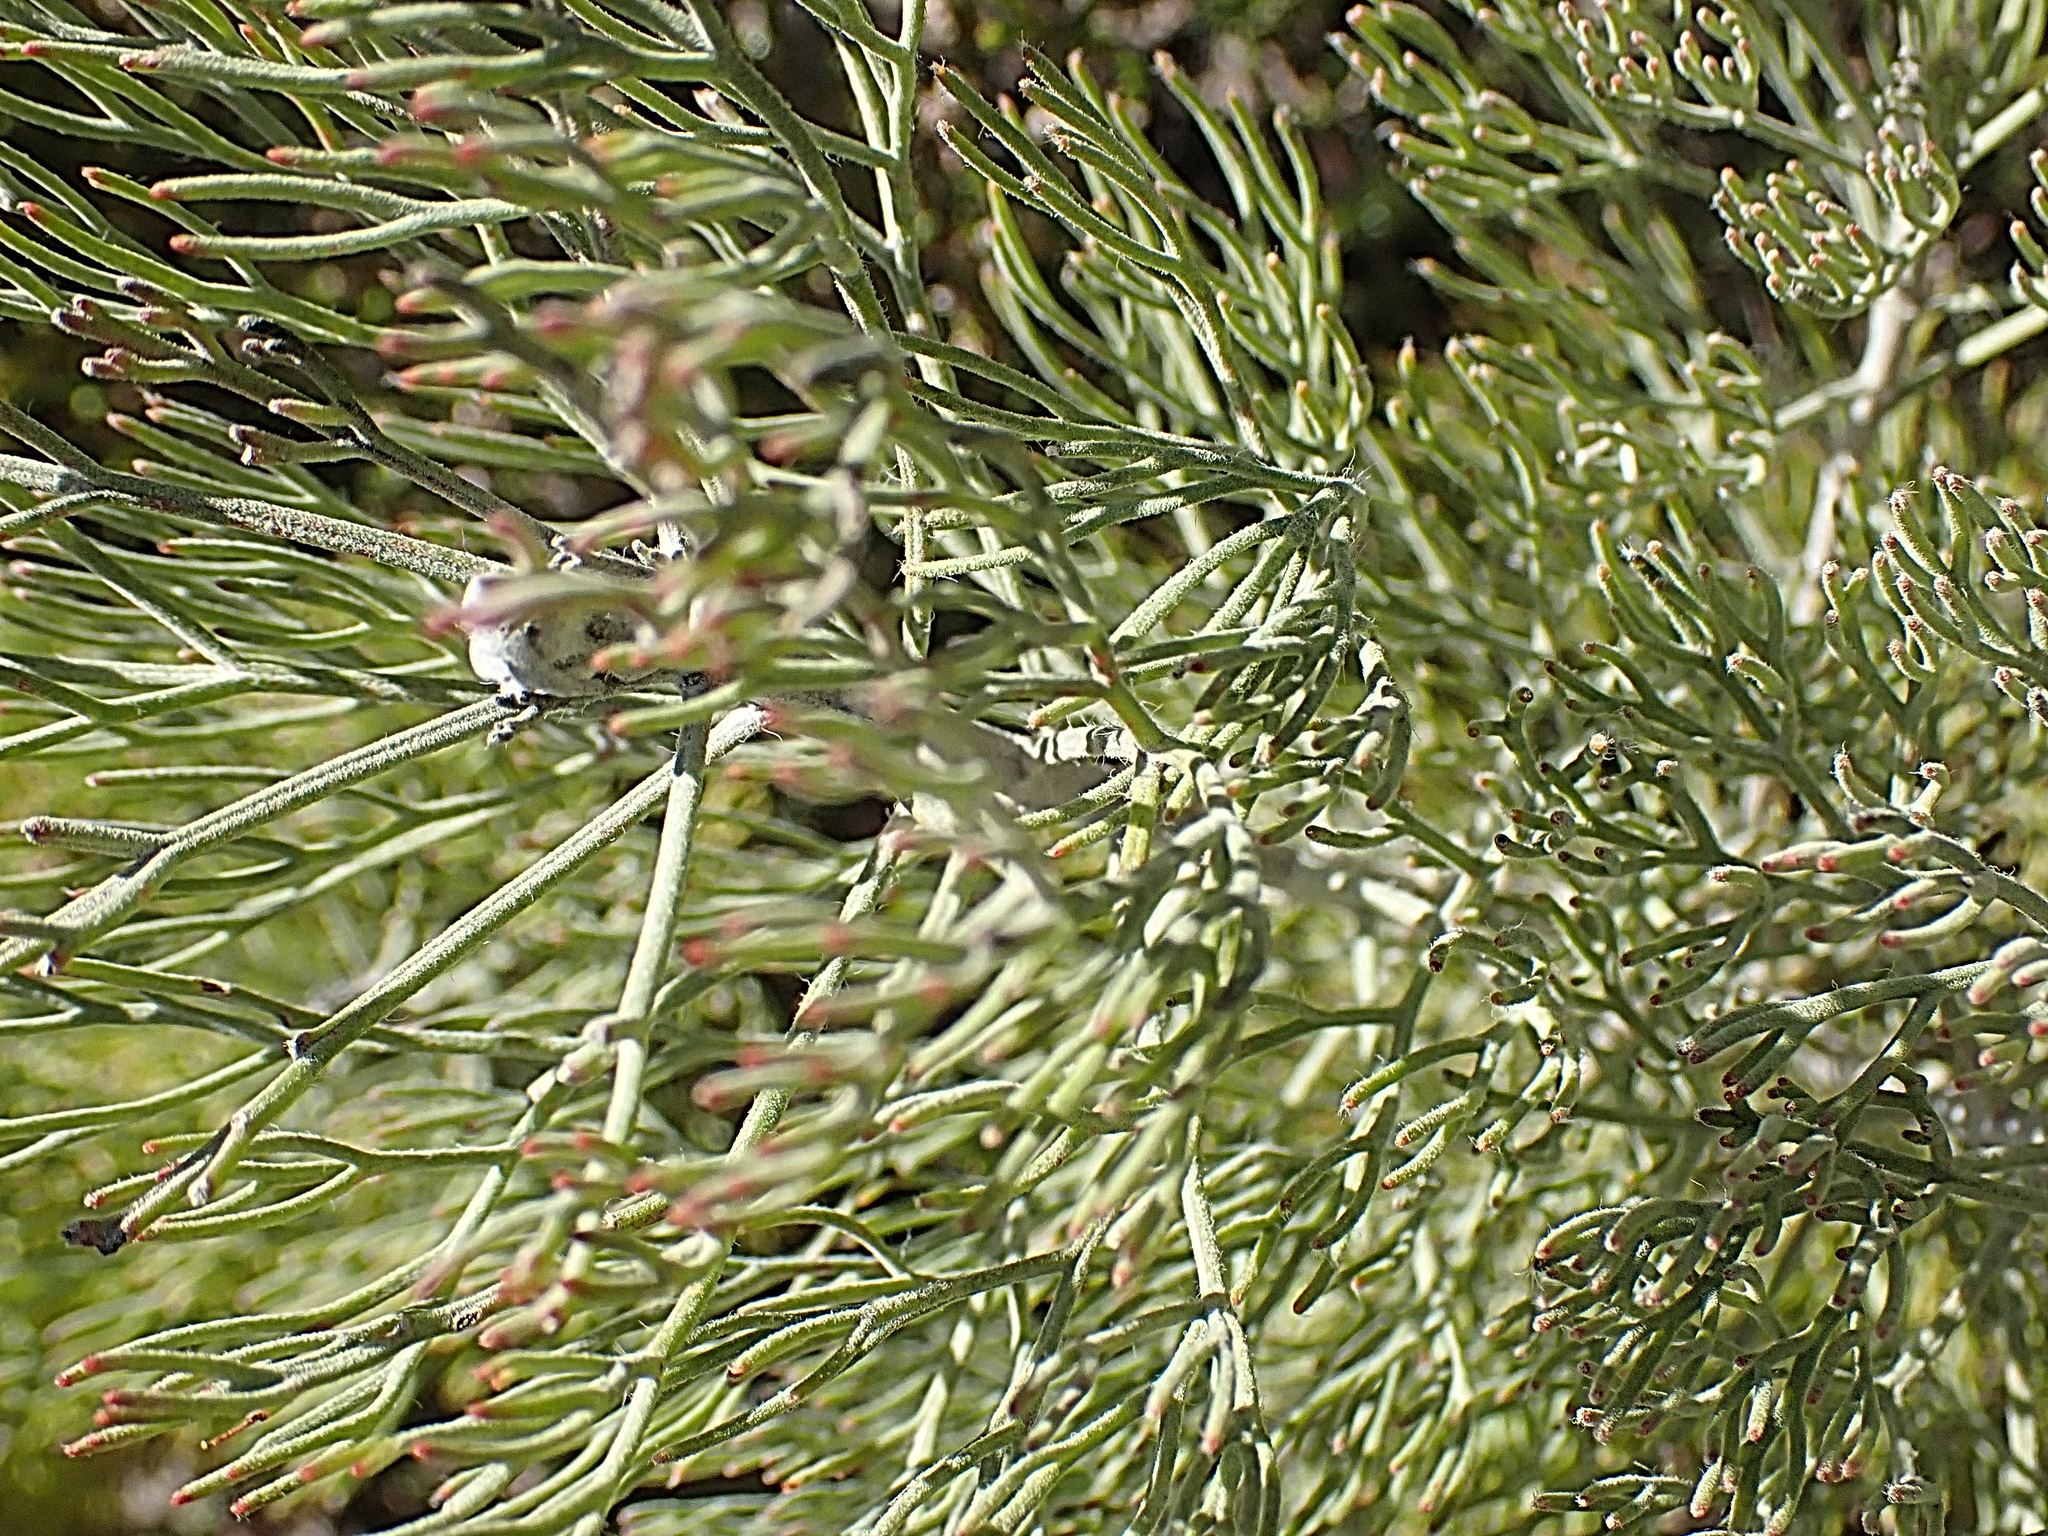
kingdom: Plantae
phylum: Tracheophyta
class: Magnoliopsida
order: Proteales
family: Proteaceae
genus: Paranomus
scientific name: Paranomus dispersus
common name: Long-head sceptre
